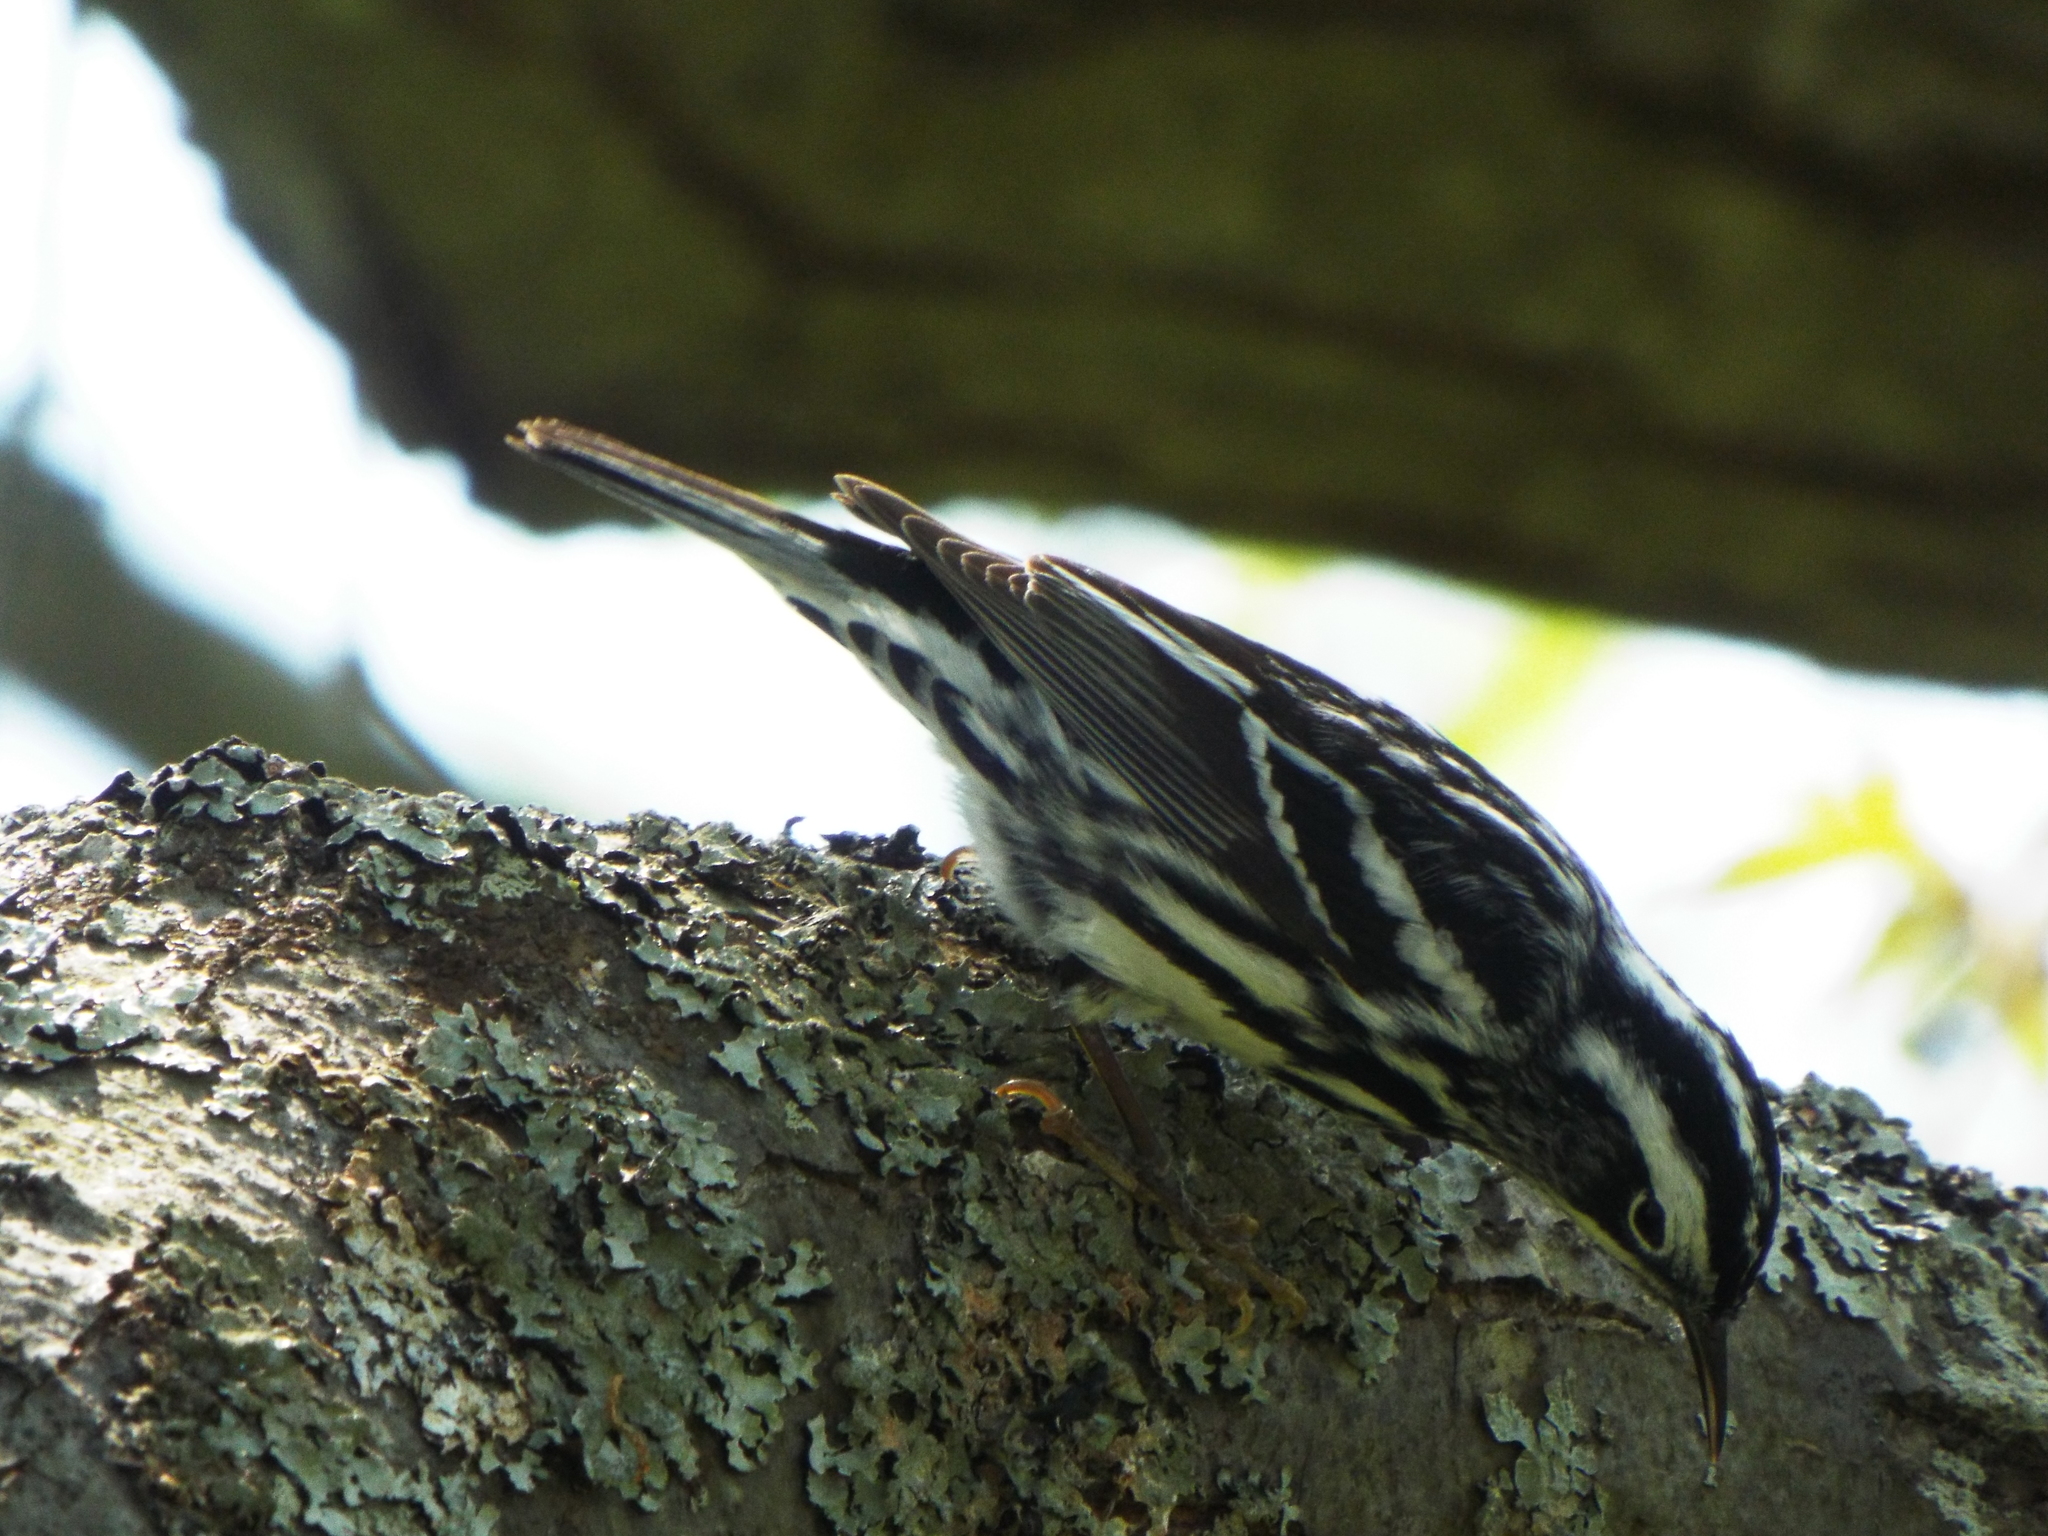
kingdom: Animalia
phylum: Chordata
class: Aves
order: Passeriformes
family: Parulidae
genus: Mniotilta
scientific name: Mniotilta varia
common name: Black-and-white warbler
